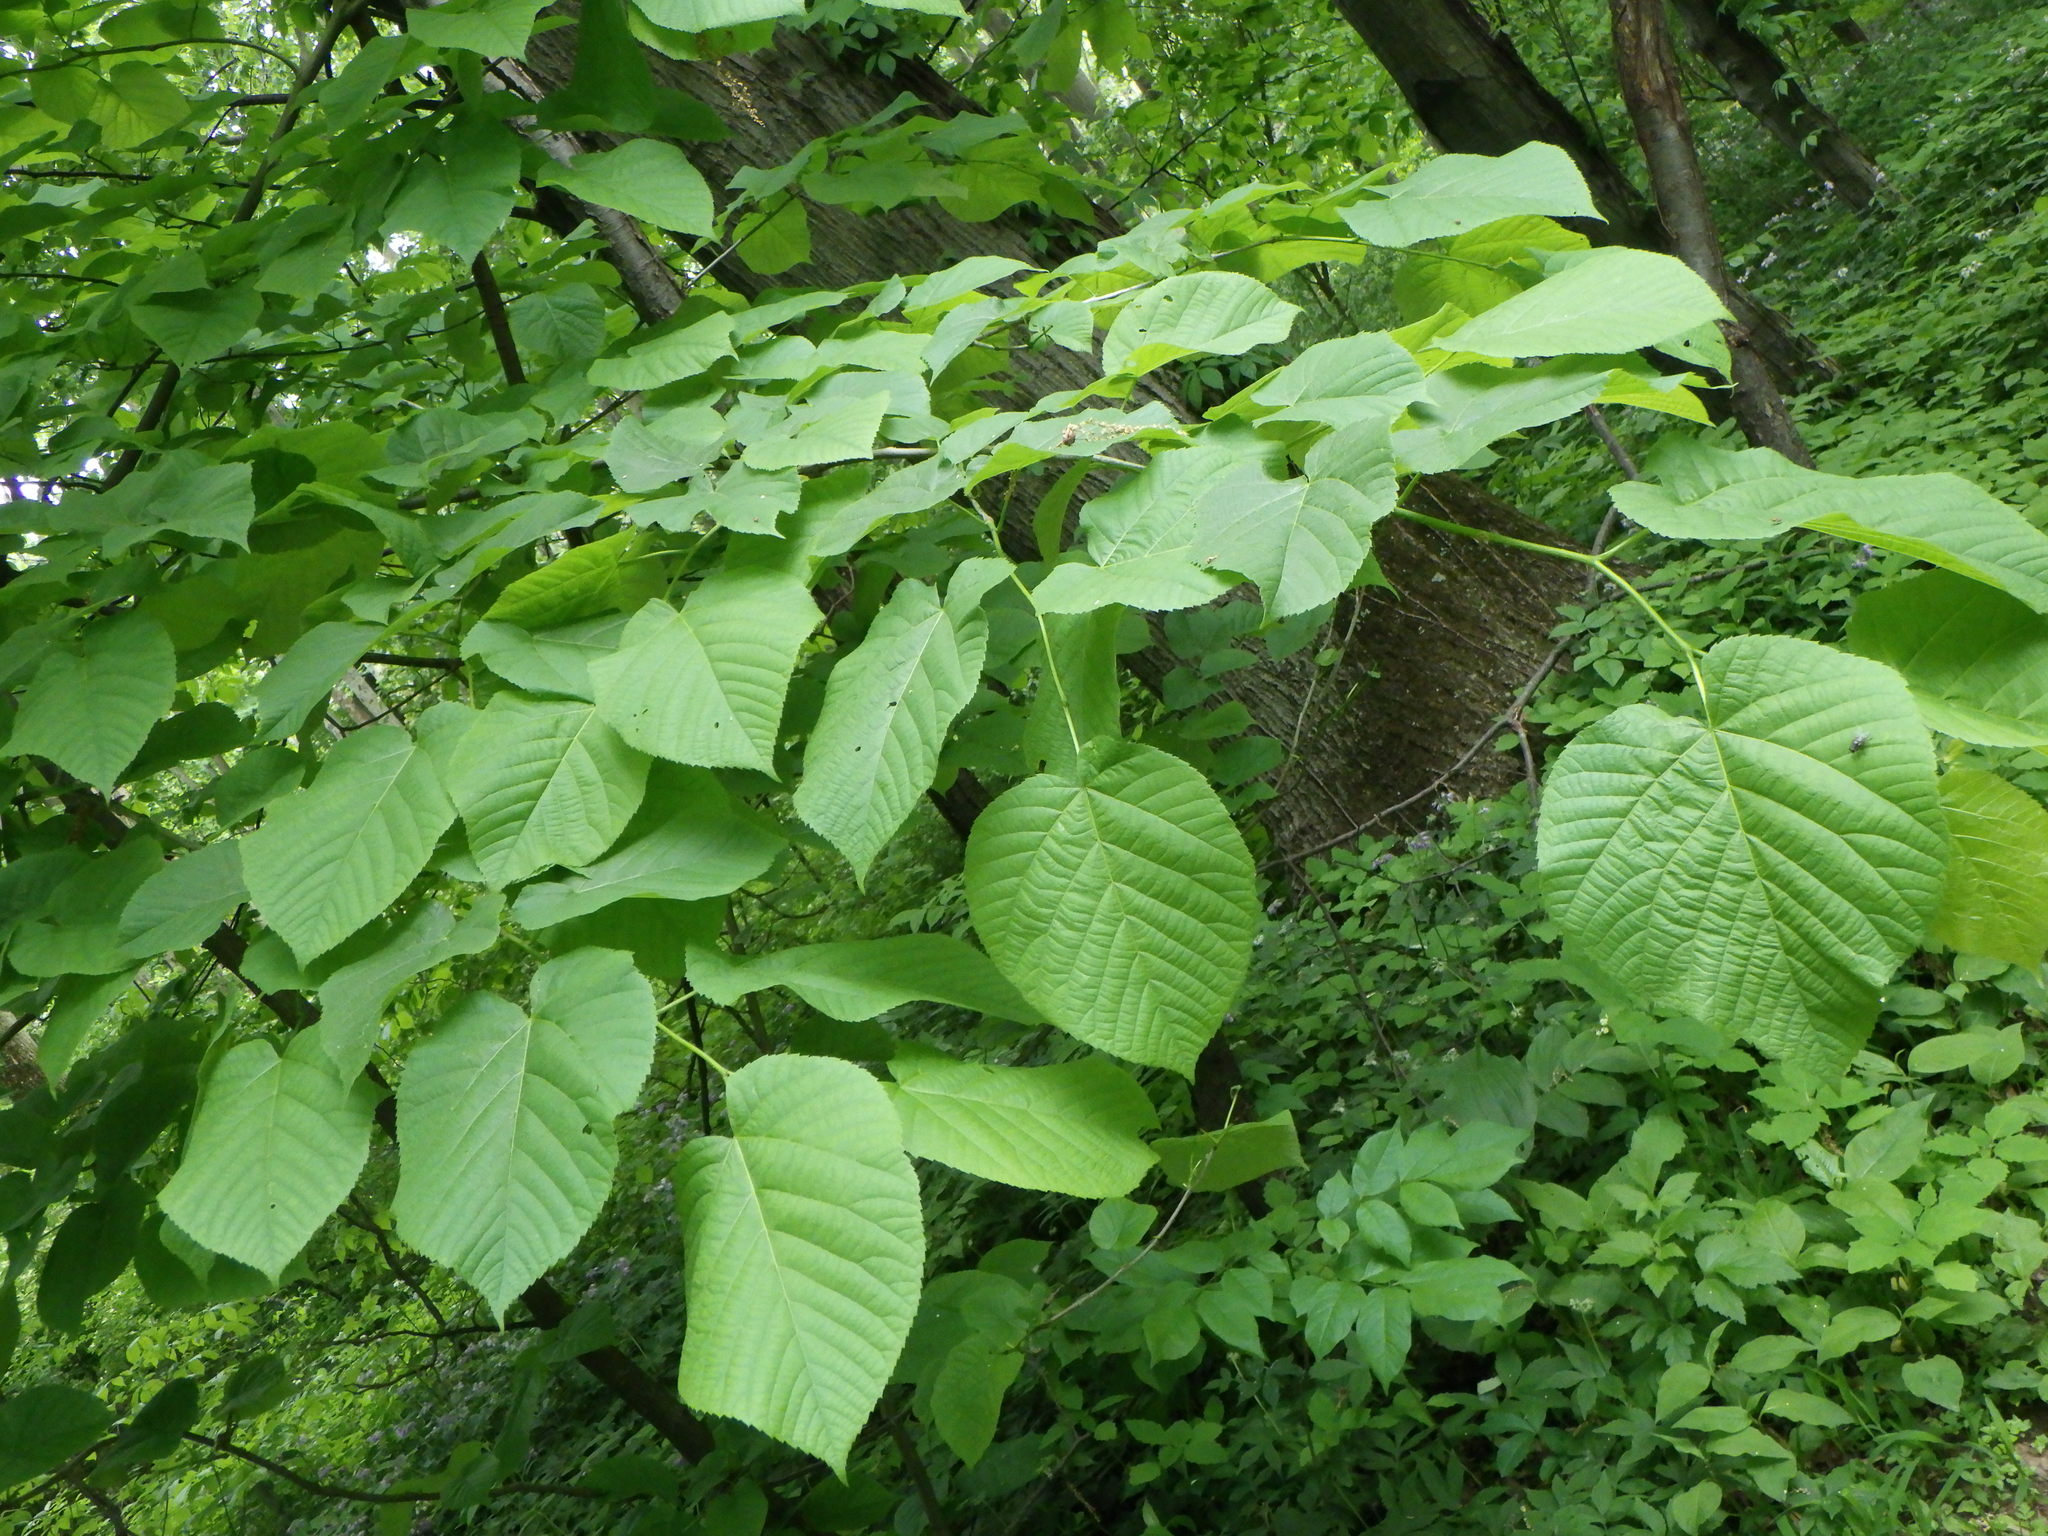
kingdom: Plantae
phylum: Tracheophyta
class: Magnoliopsida
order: Malvales
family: Malvaceae
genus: Tilia
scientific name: Tilia americana
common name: Basswood
